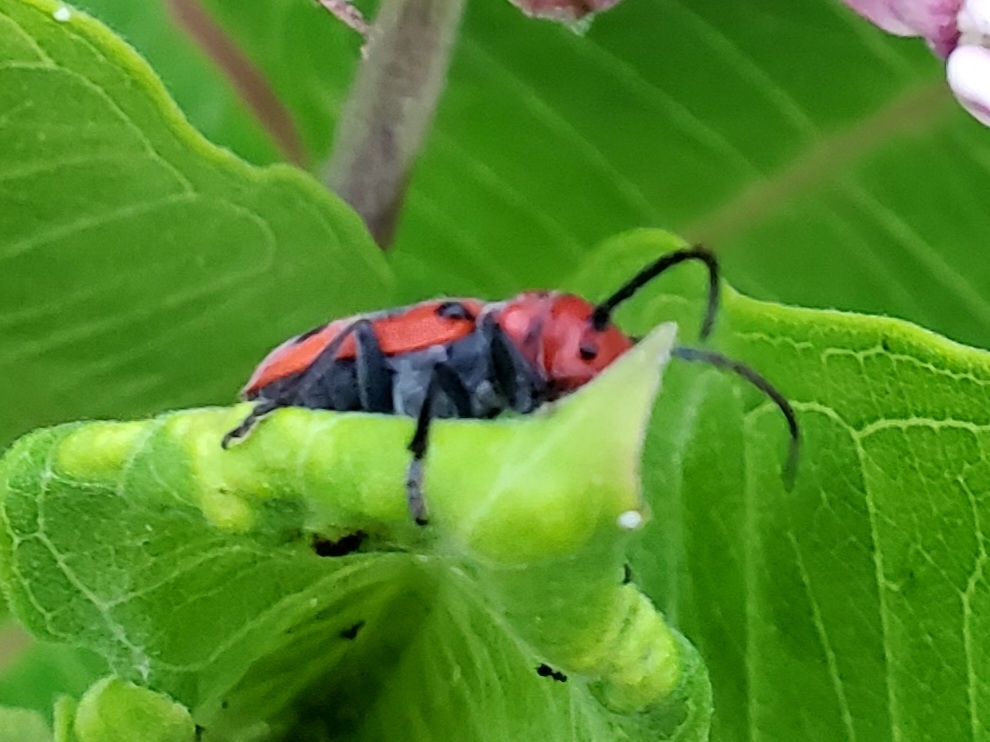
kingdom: Animalia
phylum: Arthropoda
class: Insecta
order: Coleoptera
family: Cerambycidae
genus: Tetraopes
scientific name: Tetraopes tetrophthalmus
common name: Red milkweed beetle
